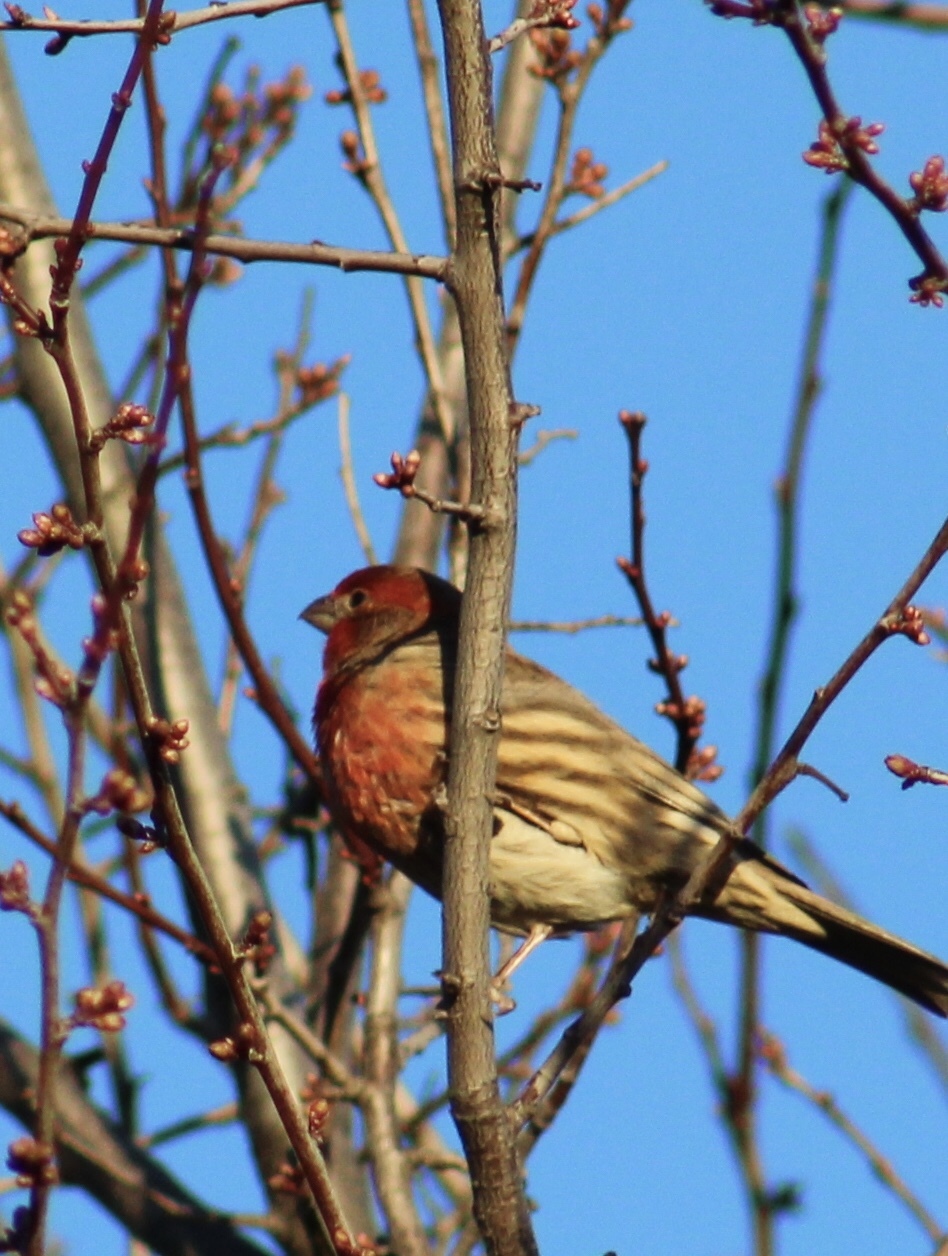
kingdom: Animalia
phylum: Chordata
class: Aves
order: Passeriformes
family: Fringillidae
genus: Haemorhous
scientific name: Haemorhous mexicanus
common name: House finch
